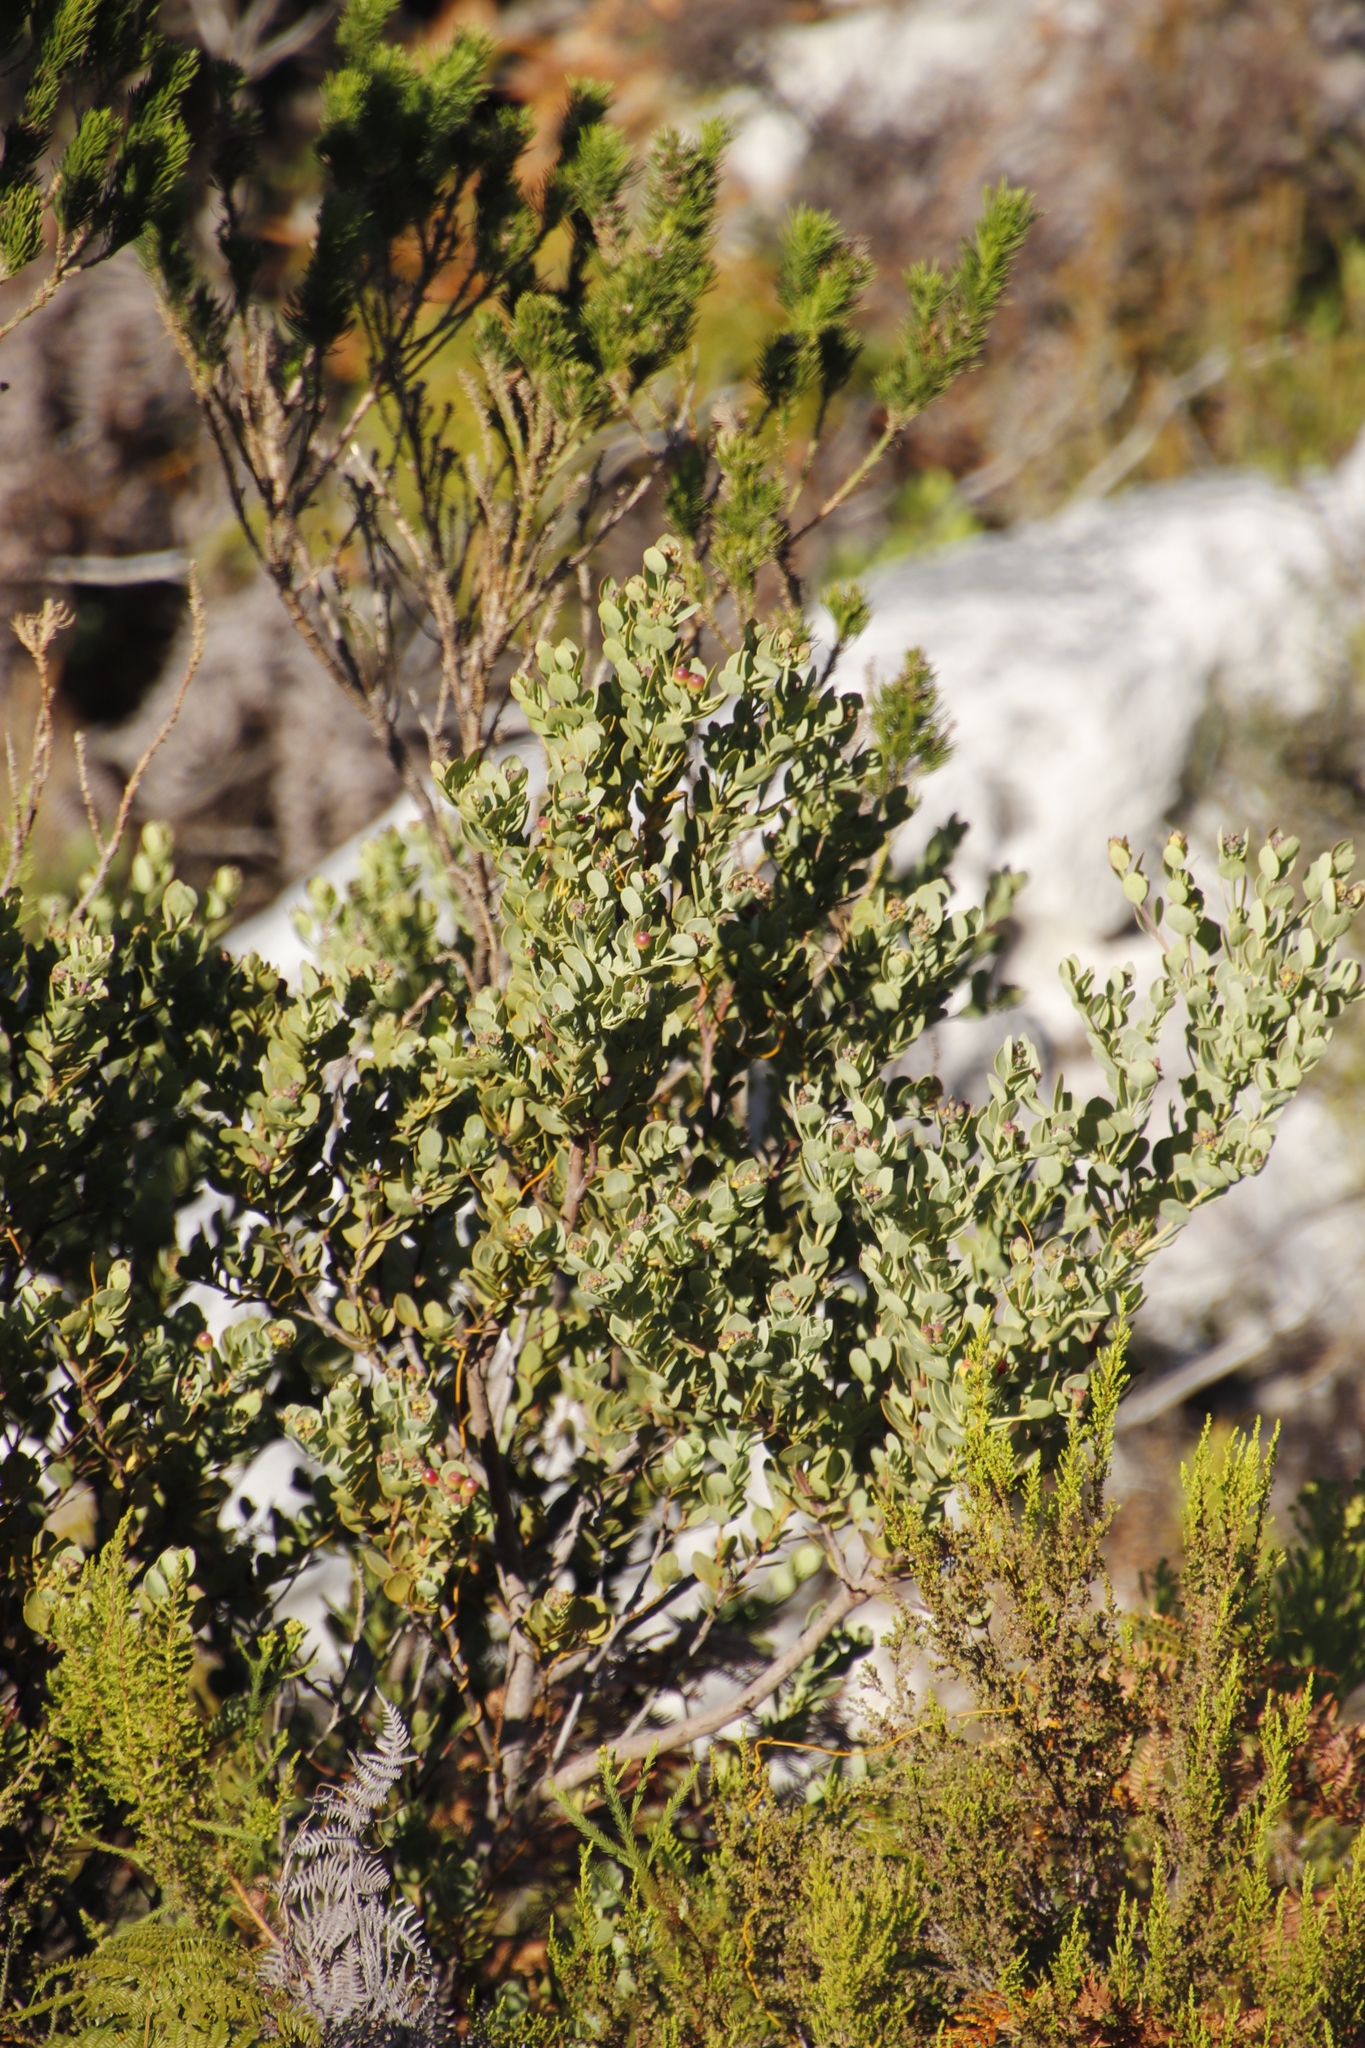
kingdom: Plantae
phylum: Tracheophyta
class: Magnoliopsida
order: Santalales
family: Santalaceae
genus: Osyris
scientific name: Osyris compressa
